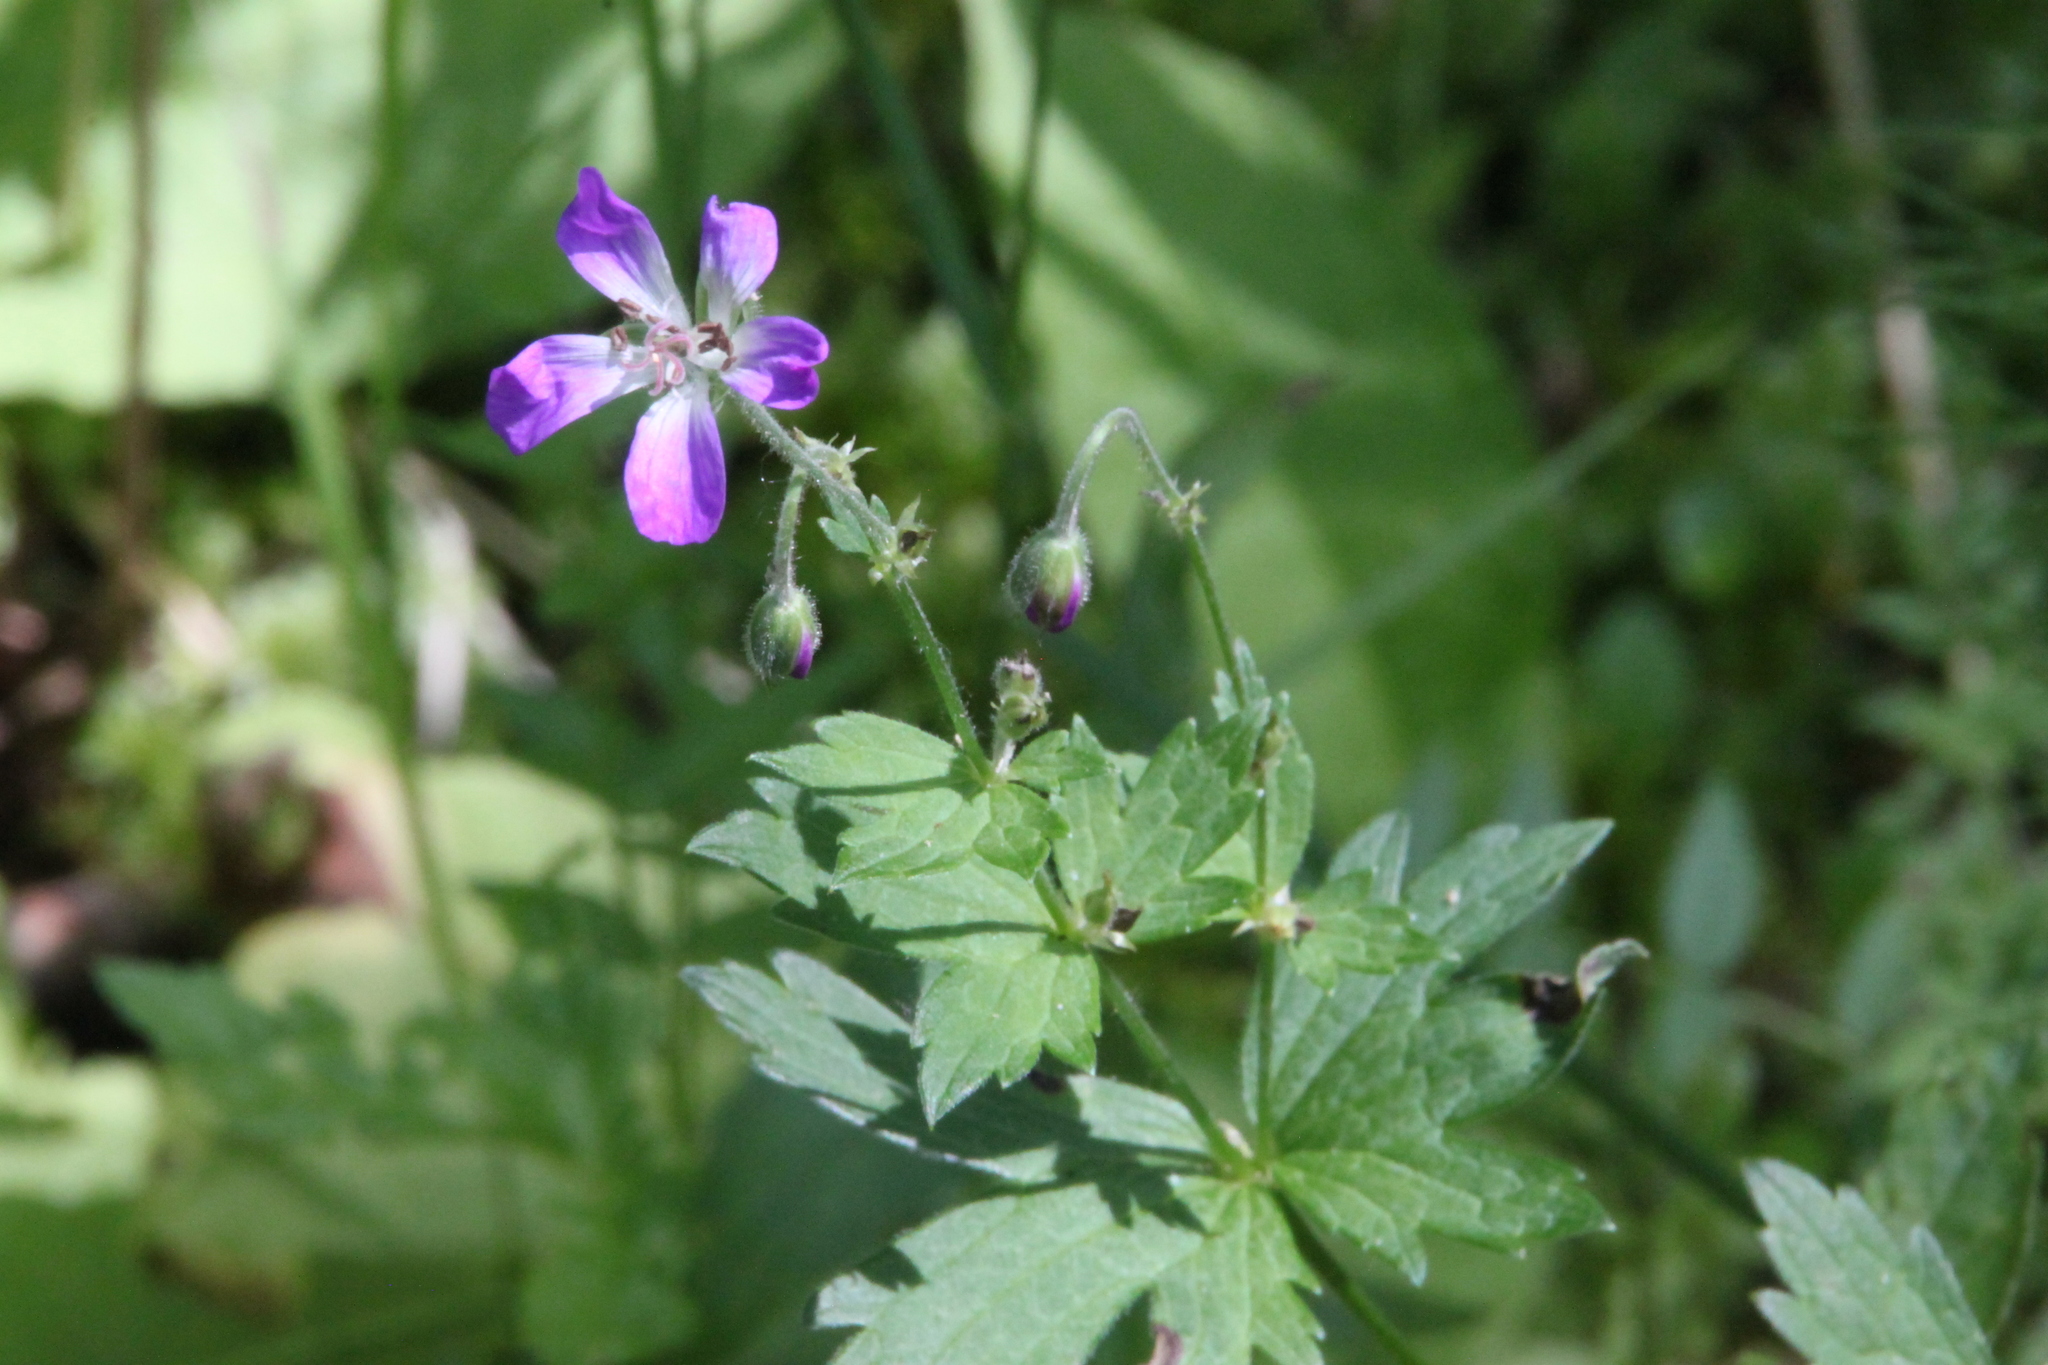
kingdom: Plantae
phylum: Tracheophyta
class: Magnoliopsida
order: Geraniales
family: Geraniaceae
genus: Geranium
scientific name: Geranium sylvaticum
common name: Wood crane's-bill
